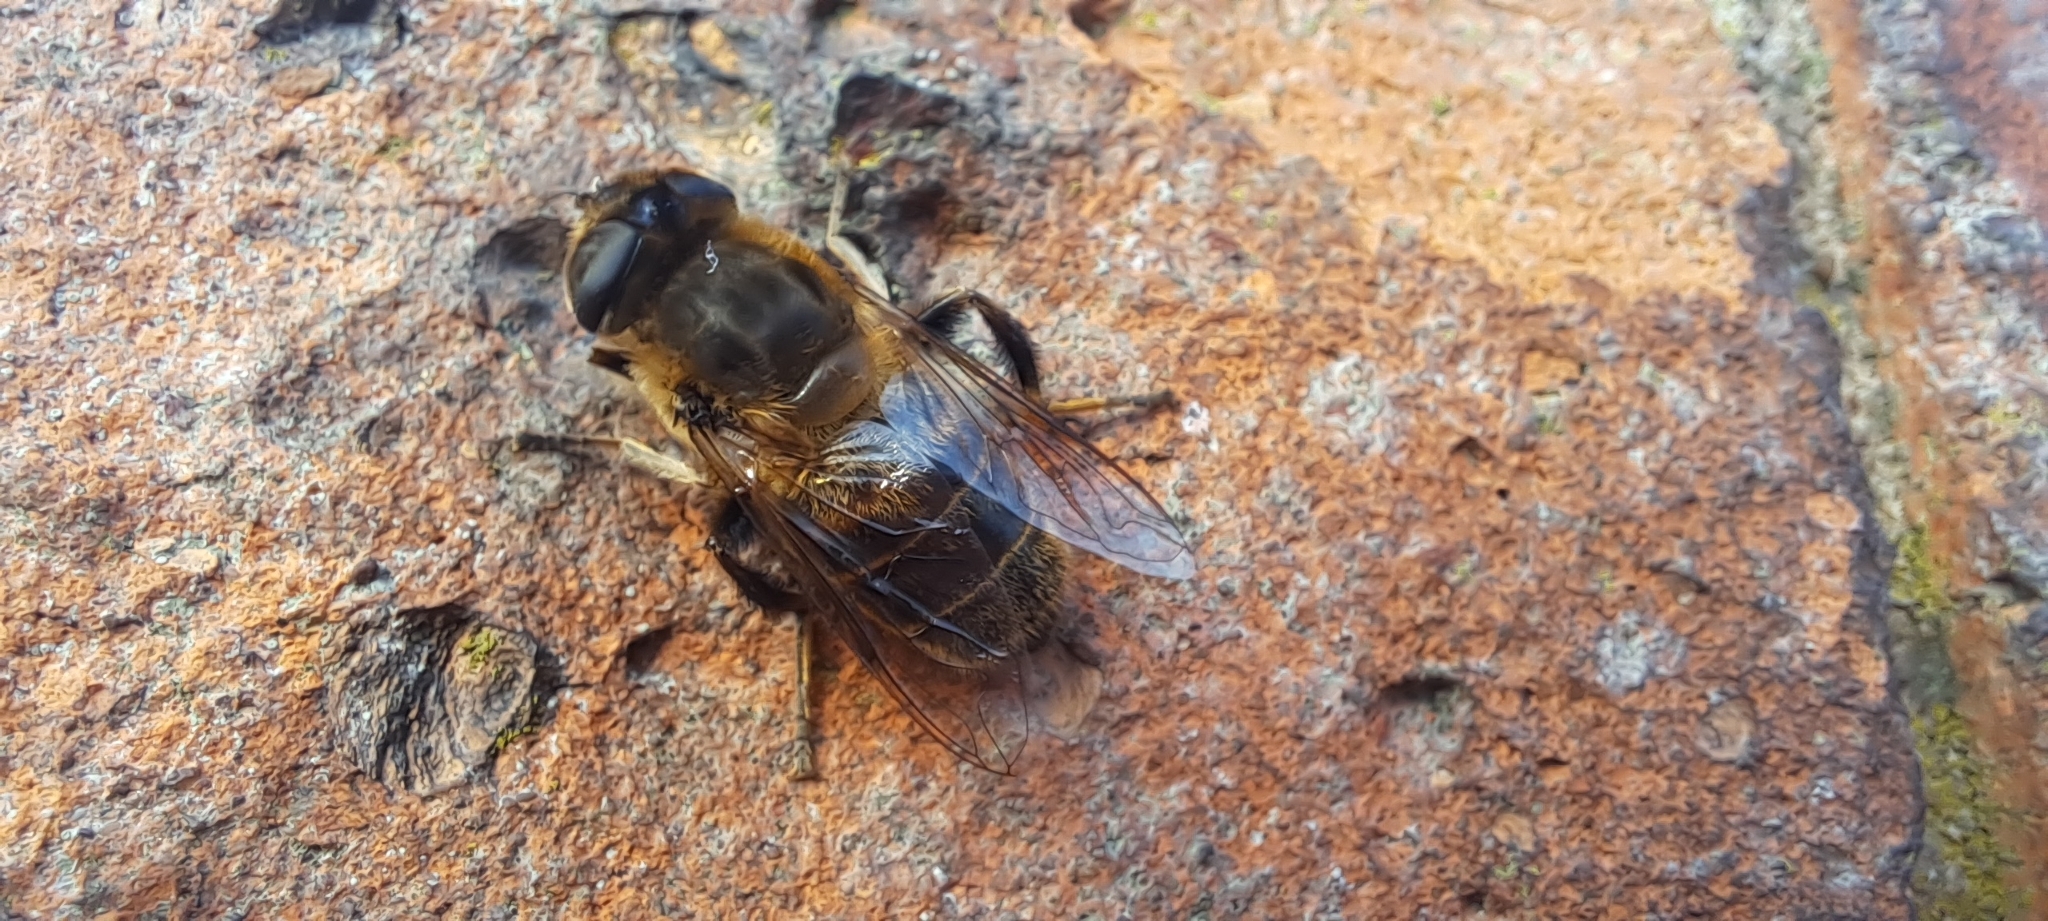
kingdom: Animalia
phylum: Arthropoda
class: Insecta
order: Diptera
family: Syrphidae
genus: Eristalis
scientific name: Eristalis tenax
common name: Drone fly
